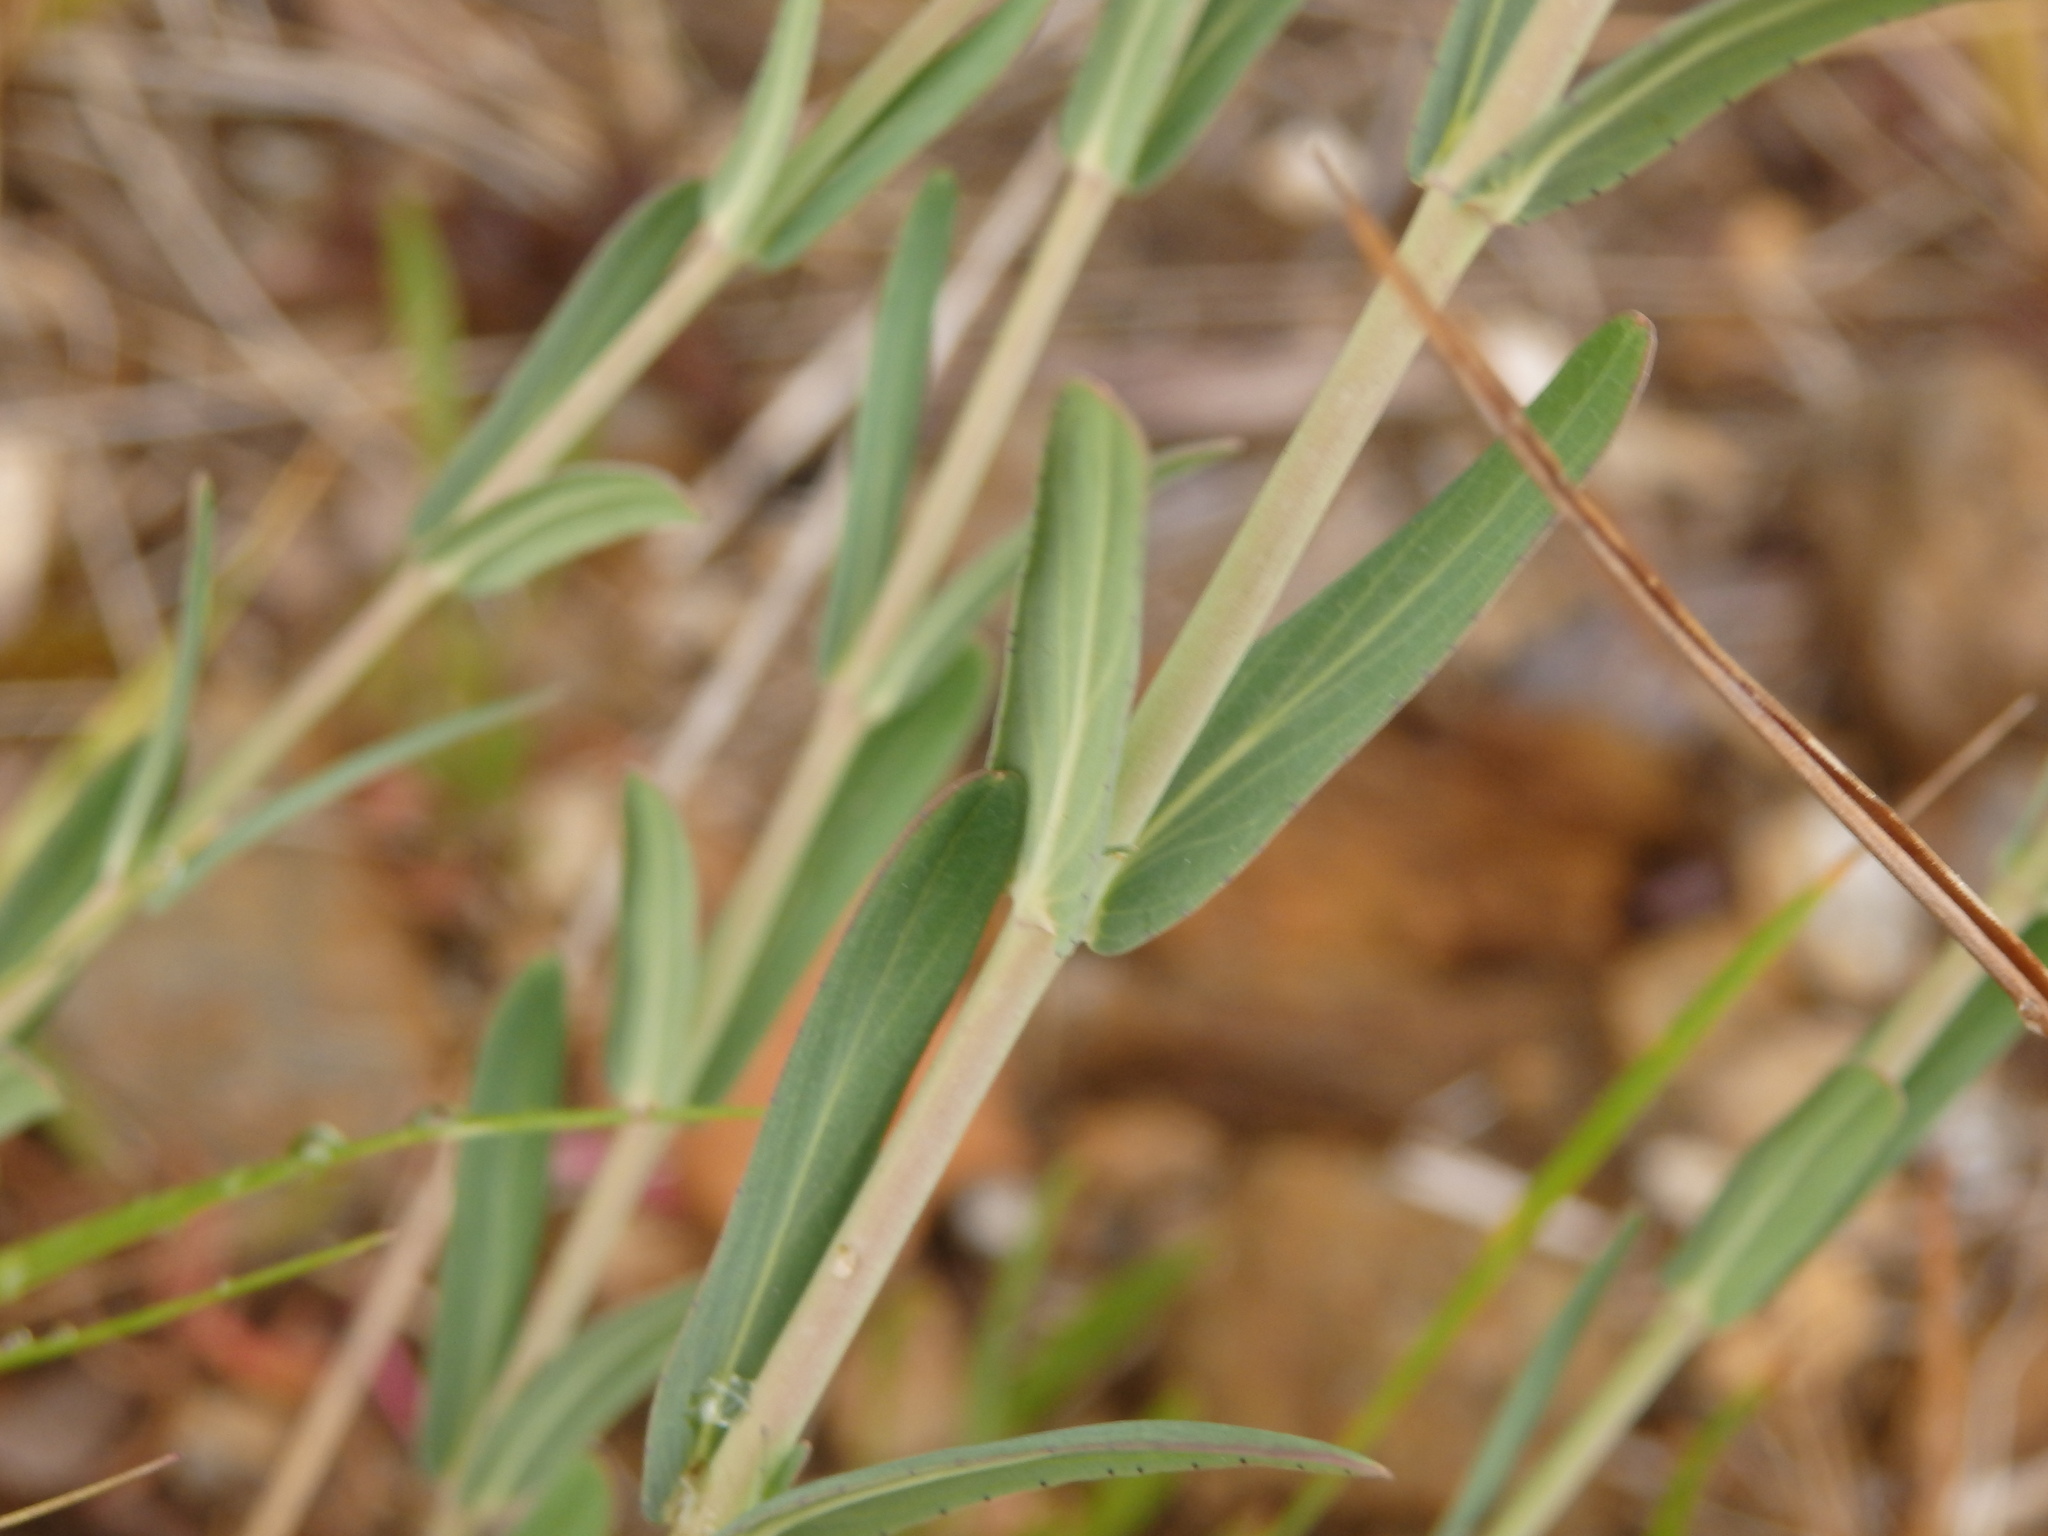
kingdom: Plantae
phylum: Tracheophyta
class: Magnoliopsida
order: Malpighiales
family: Hypericaceae
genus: Hypericum
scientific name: Hypericum linariifolium
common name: Toadflax-leaved st. john's-wort
